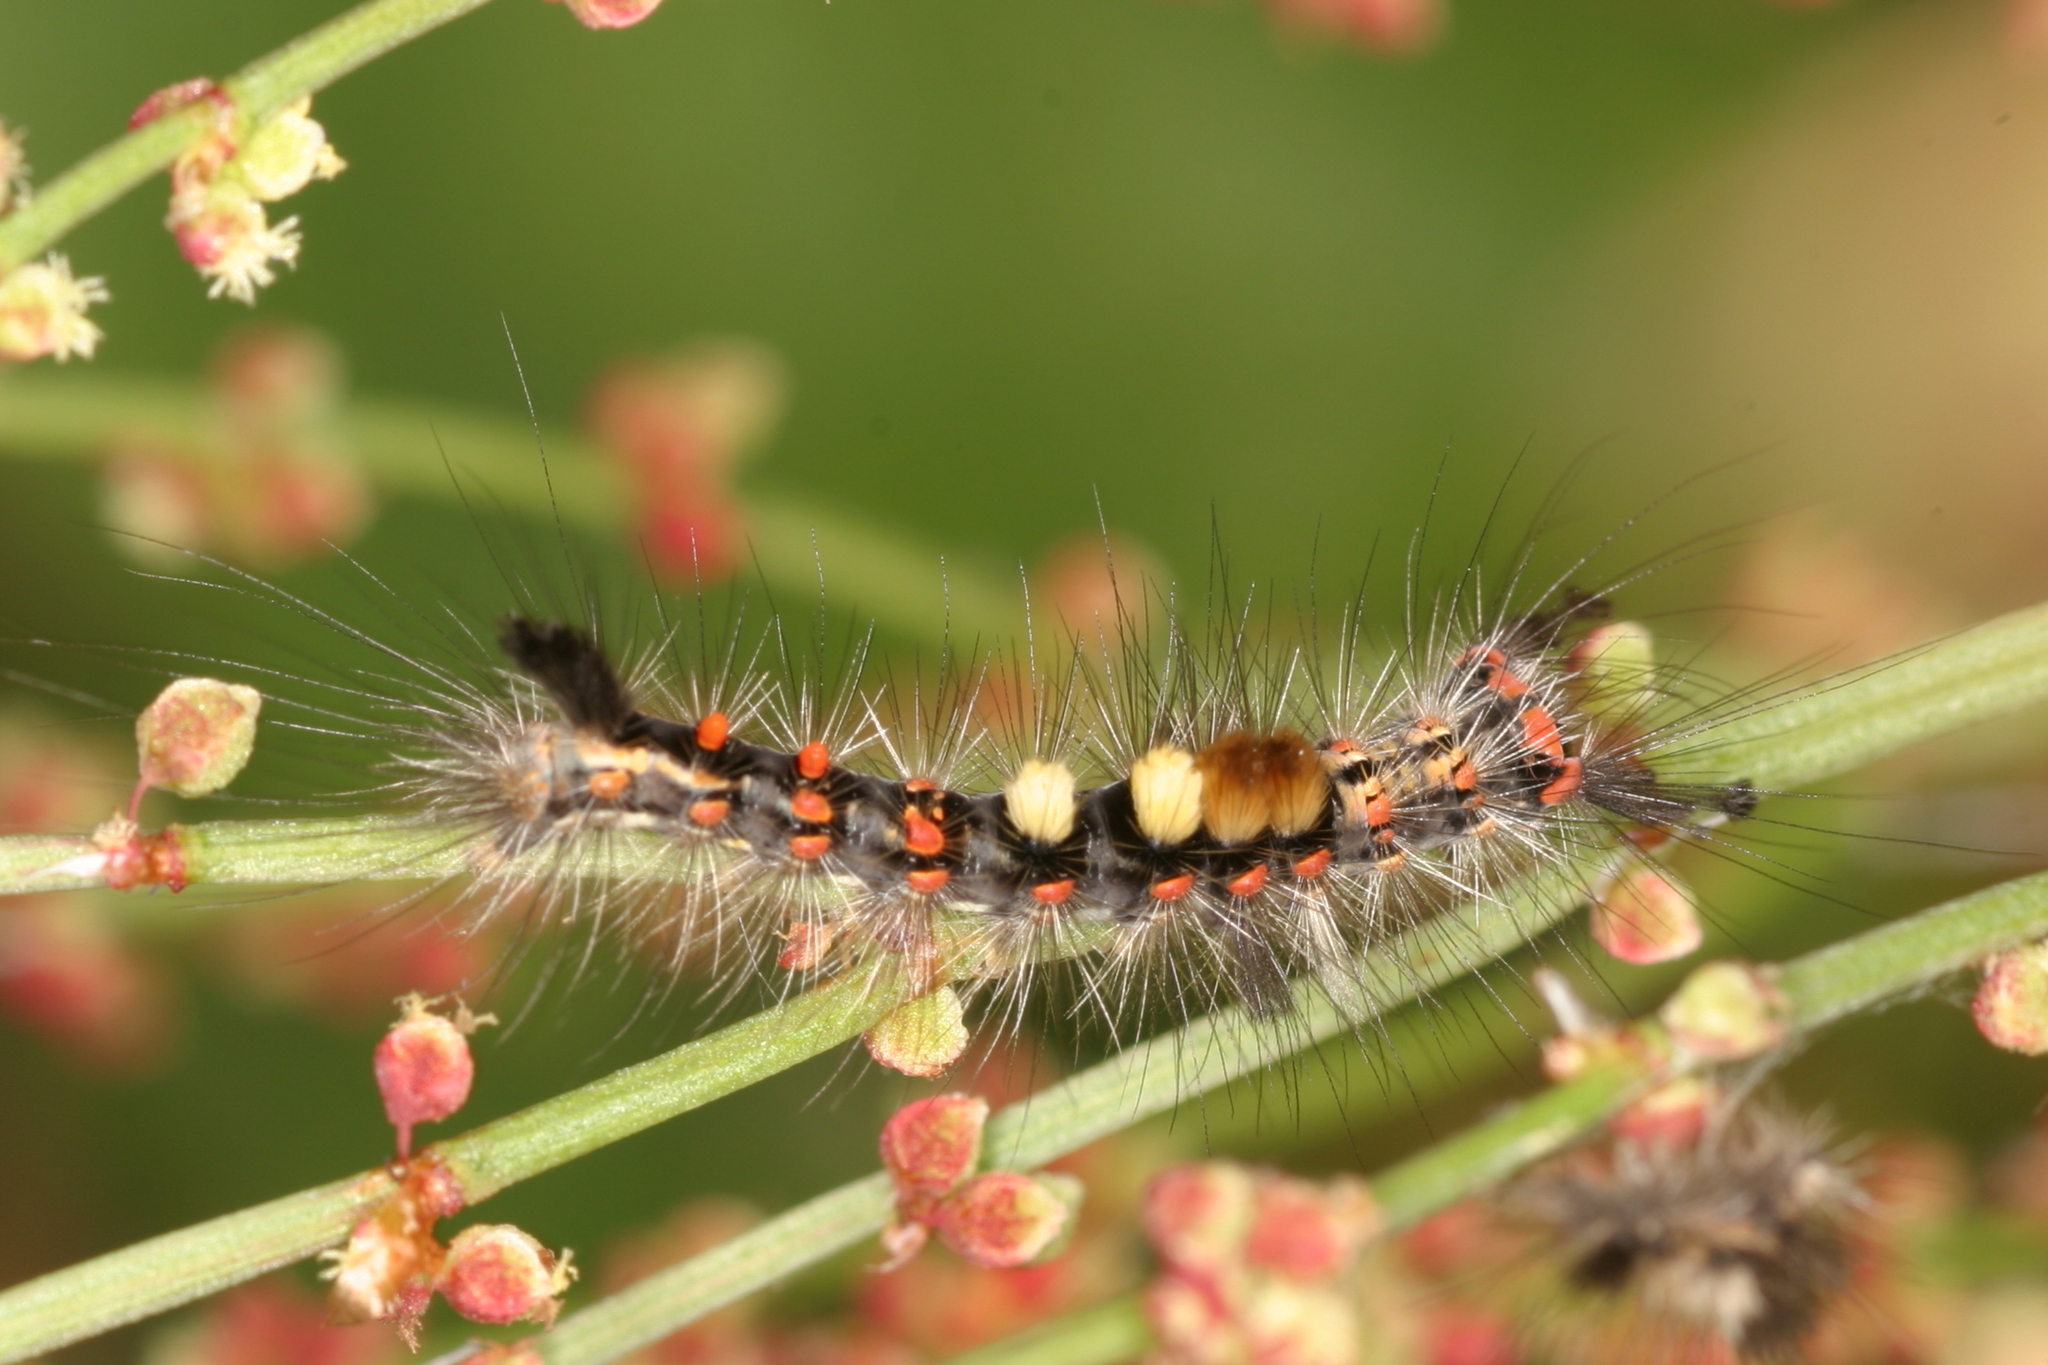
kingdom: Animalia
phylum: Arthropoda
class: Insecta
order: Lepidoptera
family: Erebidae
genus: Orgyia
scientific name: Orgyia antiqua
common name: Vapourer
